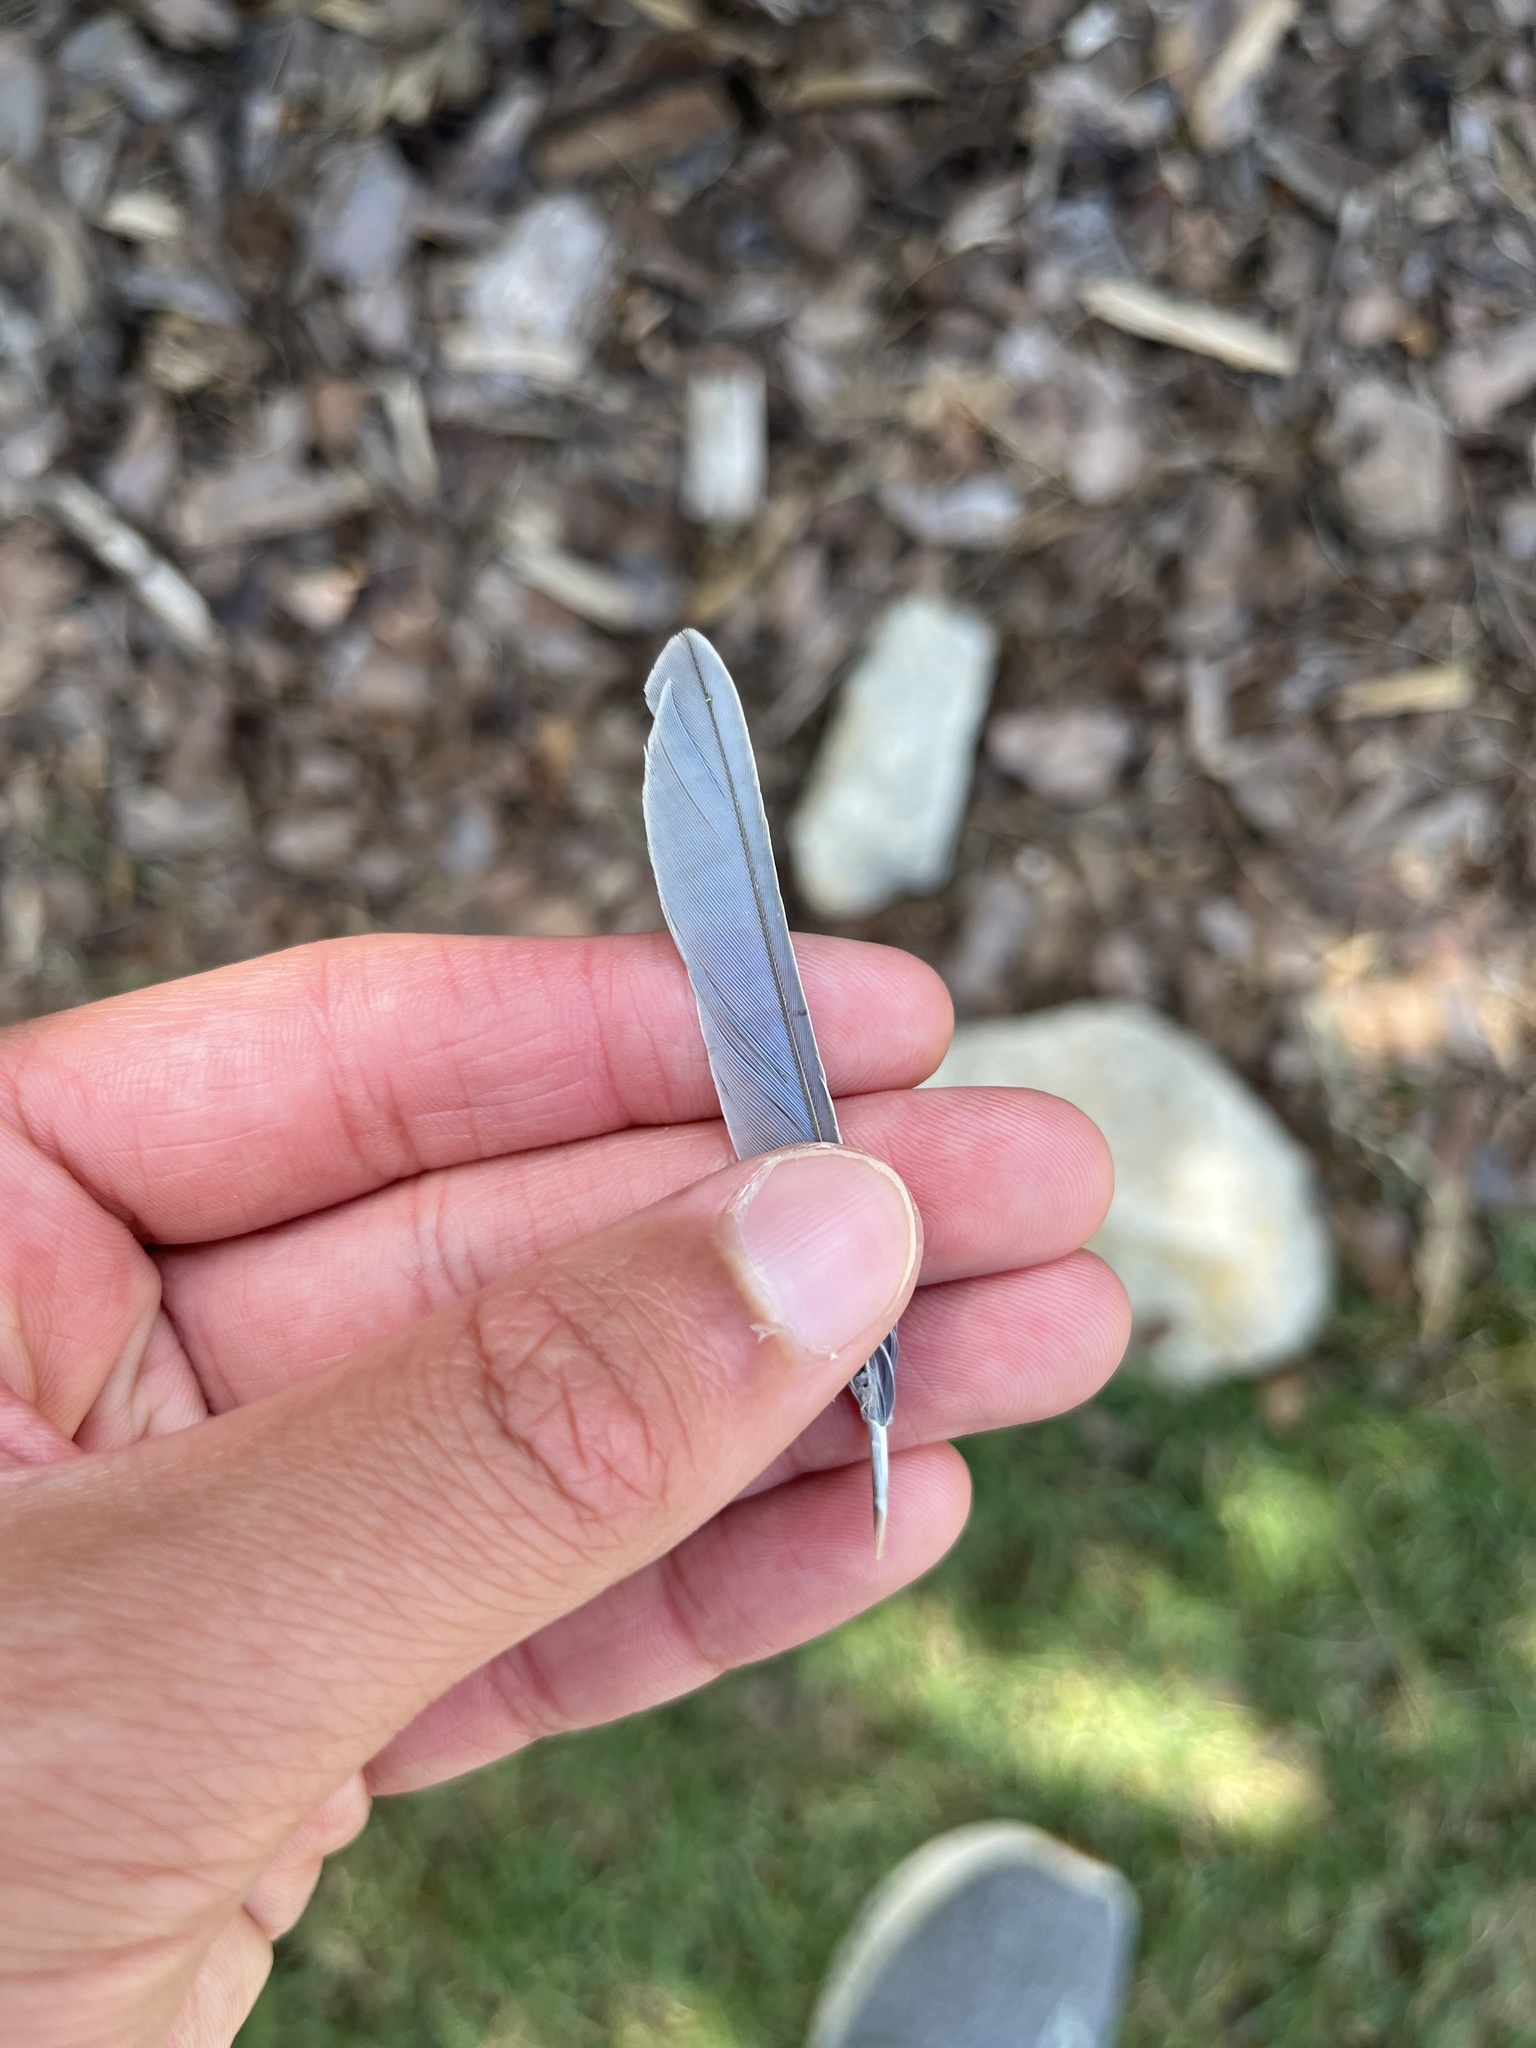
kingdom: Animalia
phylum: Chordata
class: Aves
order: Passeriformes
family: Turdidae
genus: Sialia
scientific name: Sialia sialis
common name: Eastern bluebird
